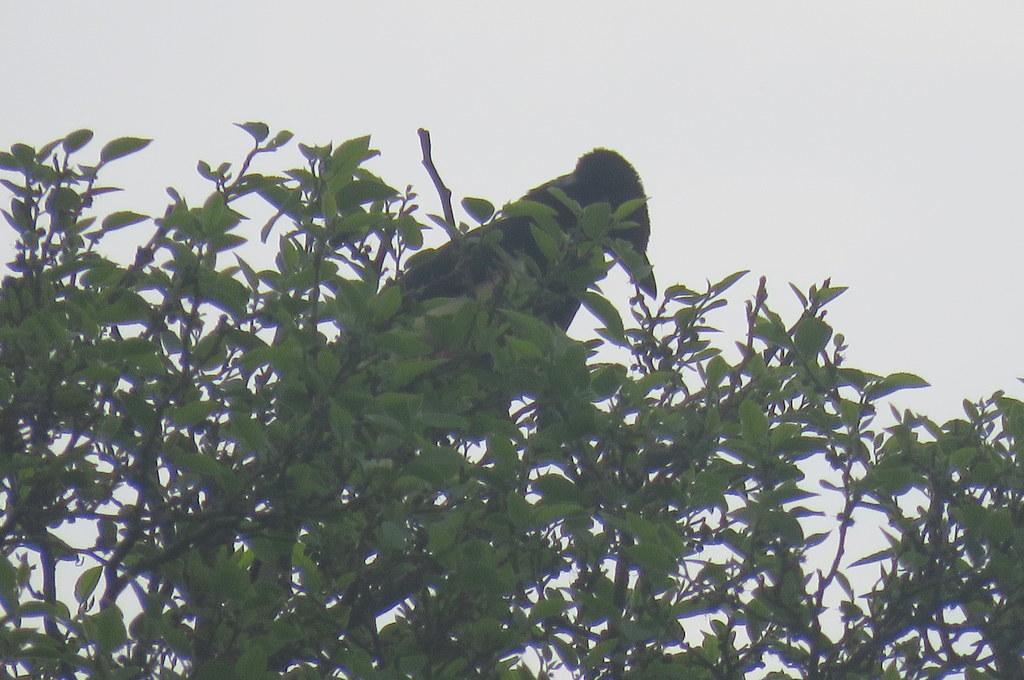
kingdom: Animalia
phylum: Chordata
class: Aves
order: Passeriformes
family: Corvidae
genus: Cyanocorax
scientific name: Cyanocorax cyanomelas
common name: Purplish jay
